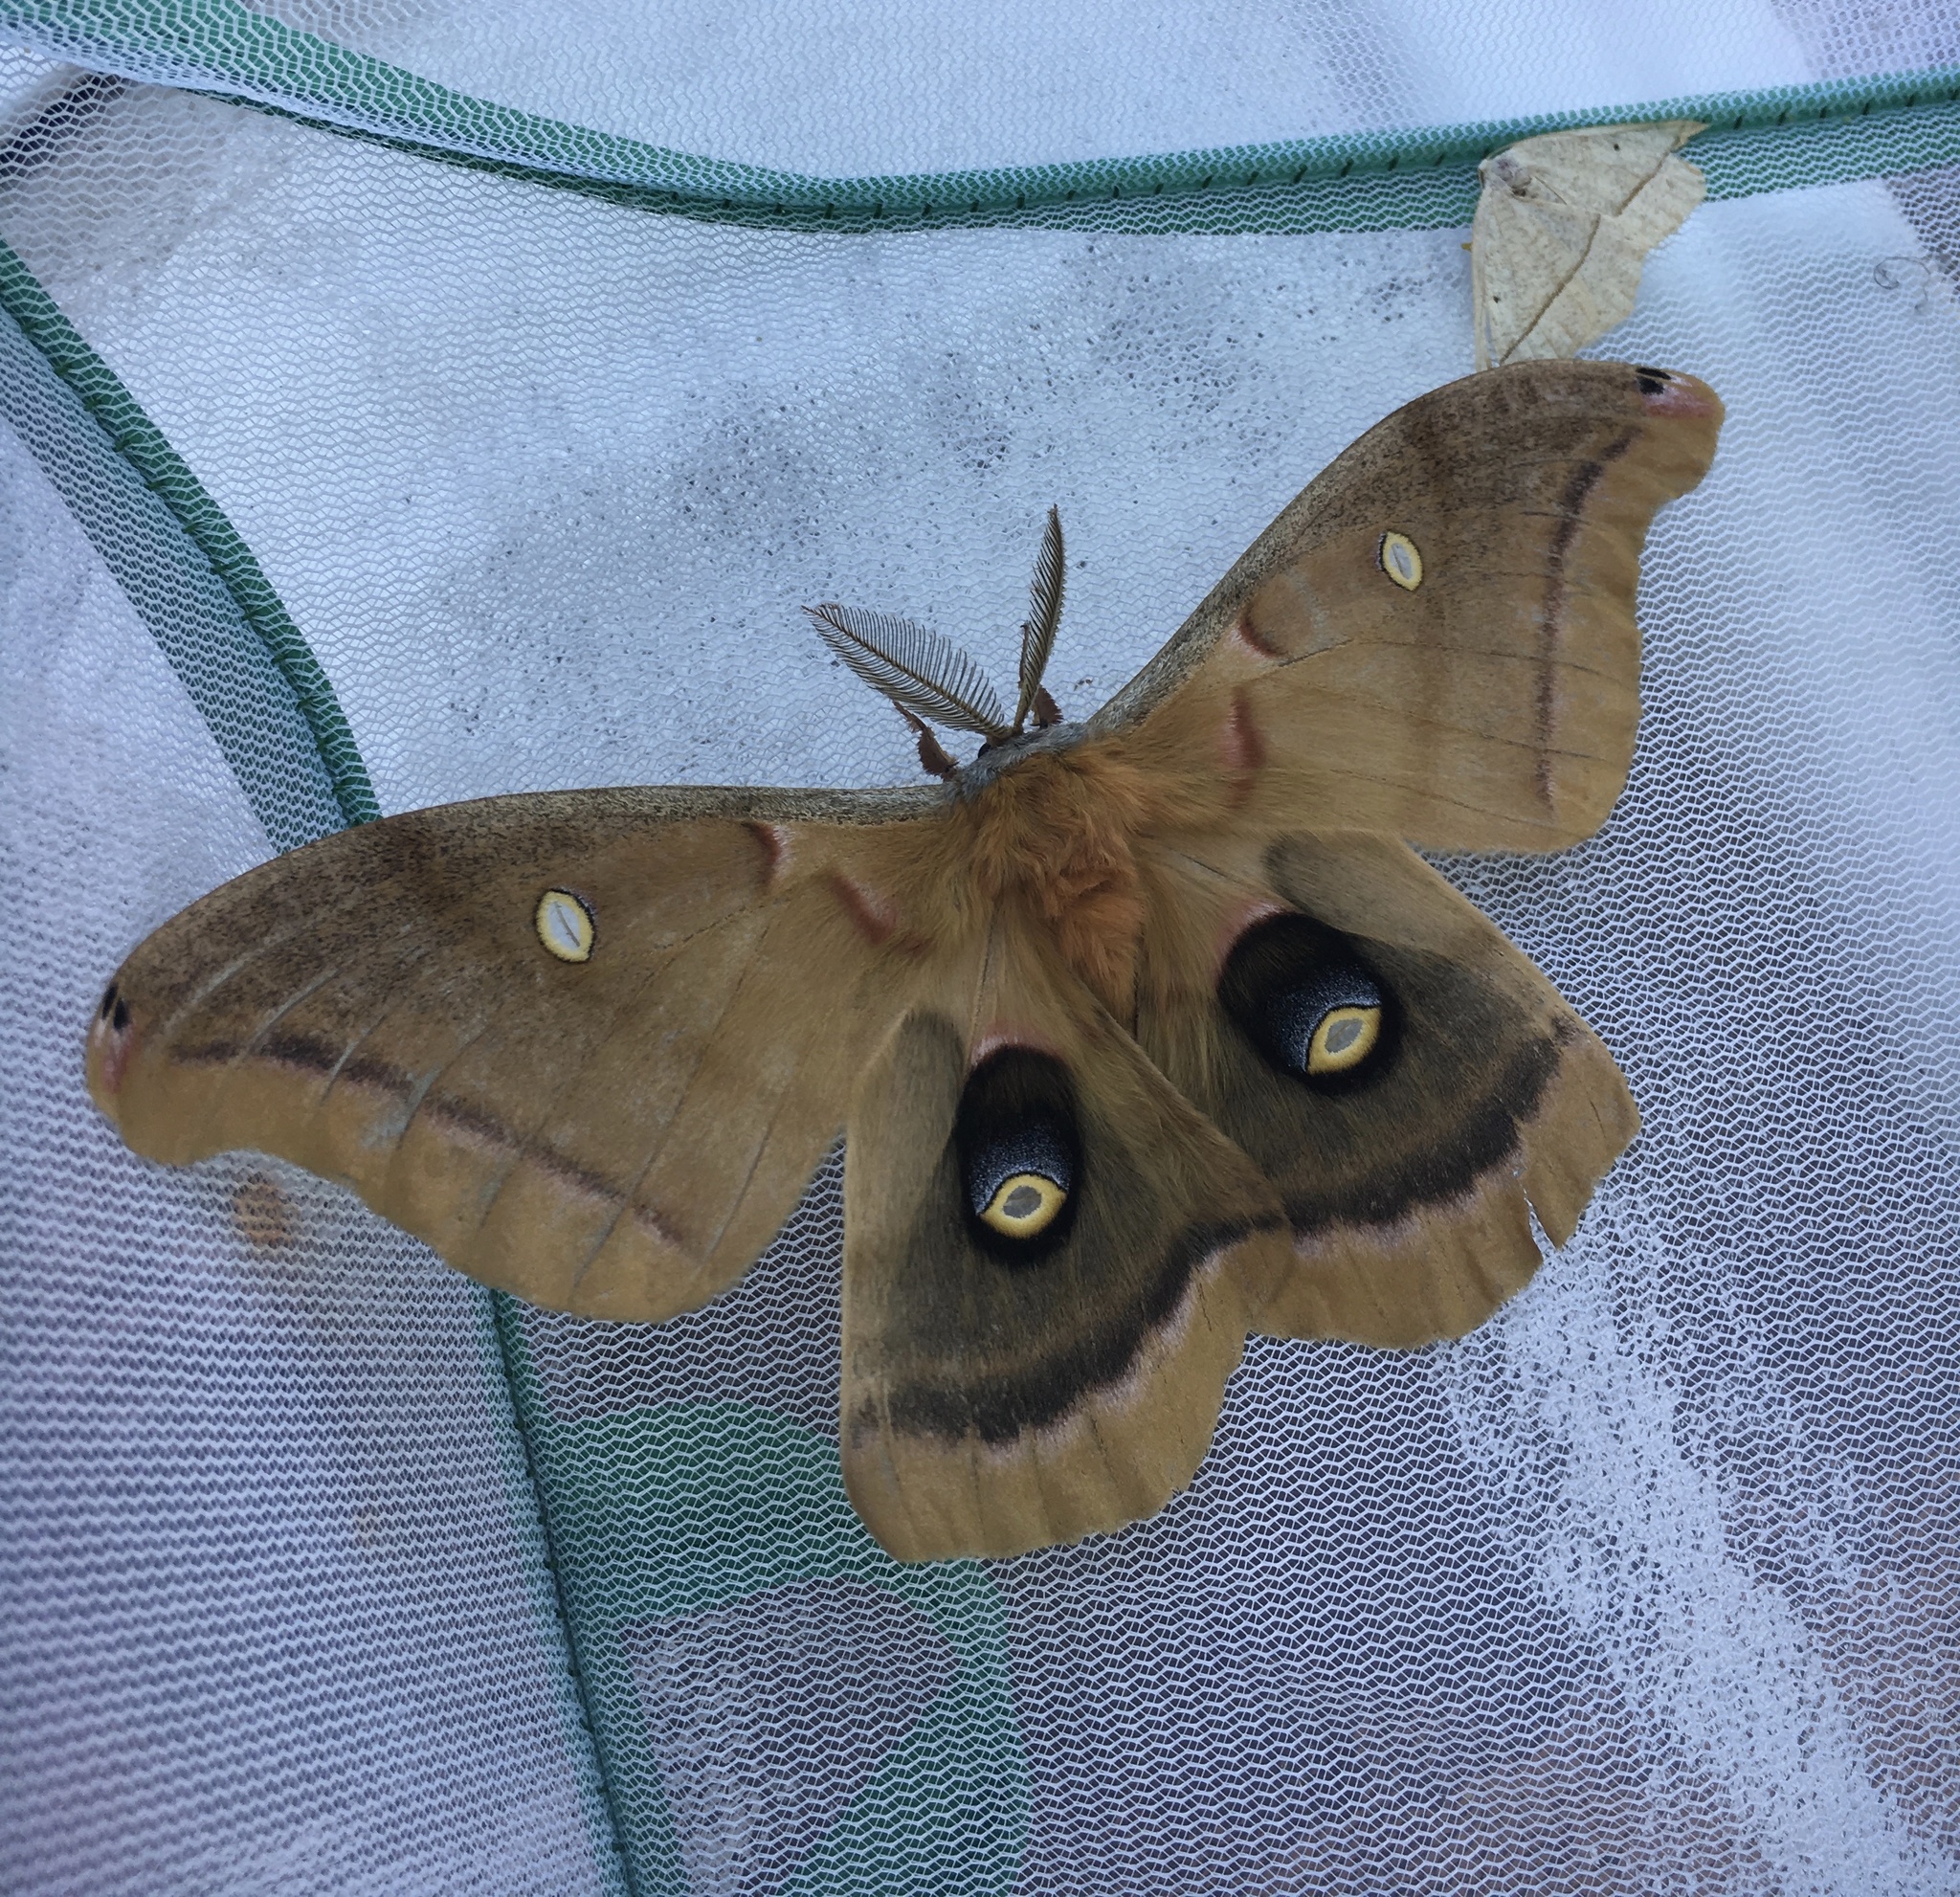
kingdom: Animalia
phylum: Arthropoda
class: Insecta
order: Lepidoptera
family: Saturniidae
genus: Antheraea
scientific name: Antheraea polyphemus
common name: Polyphemus moth
